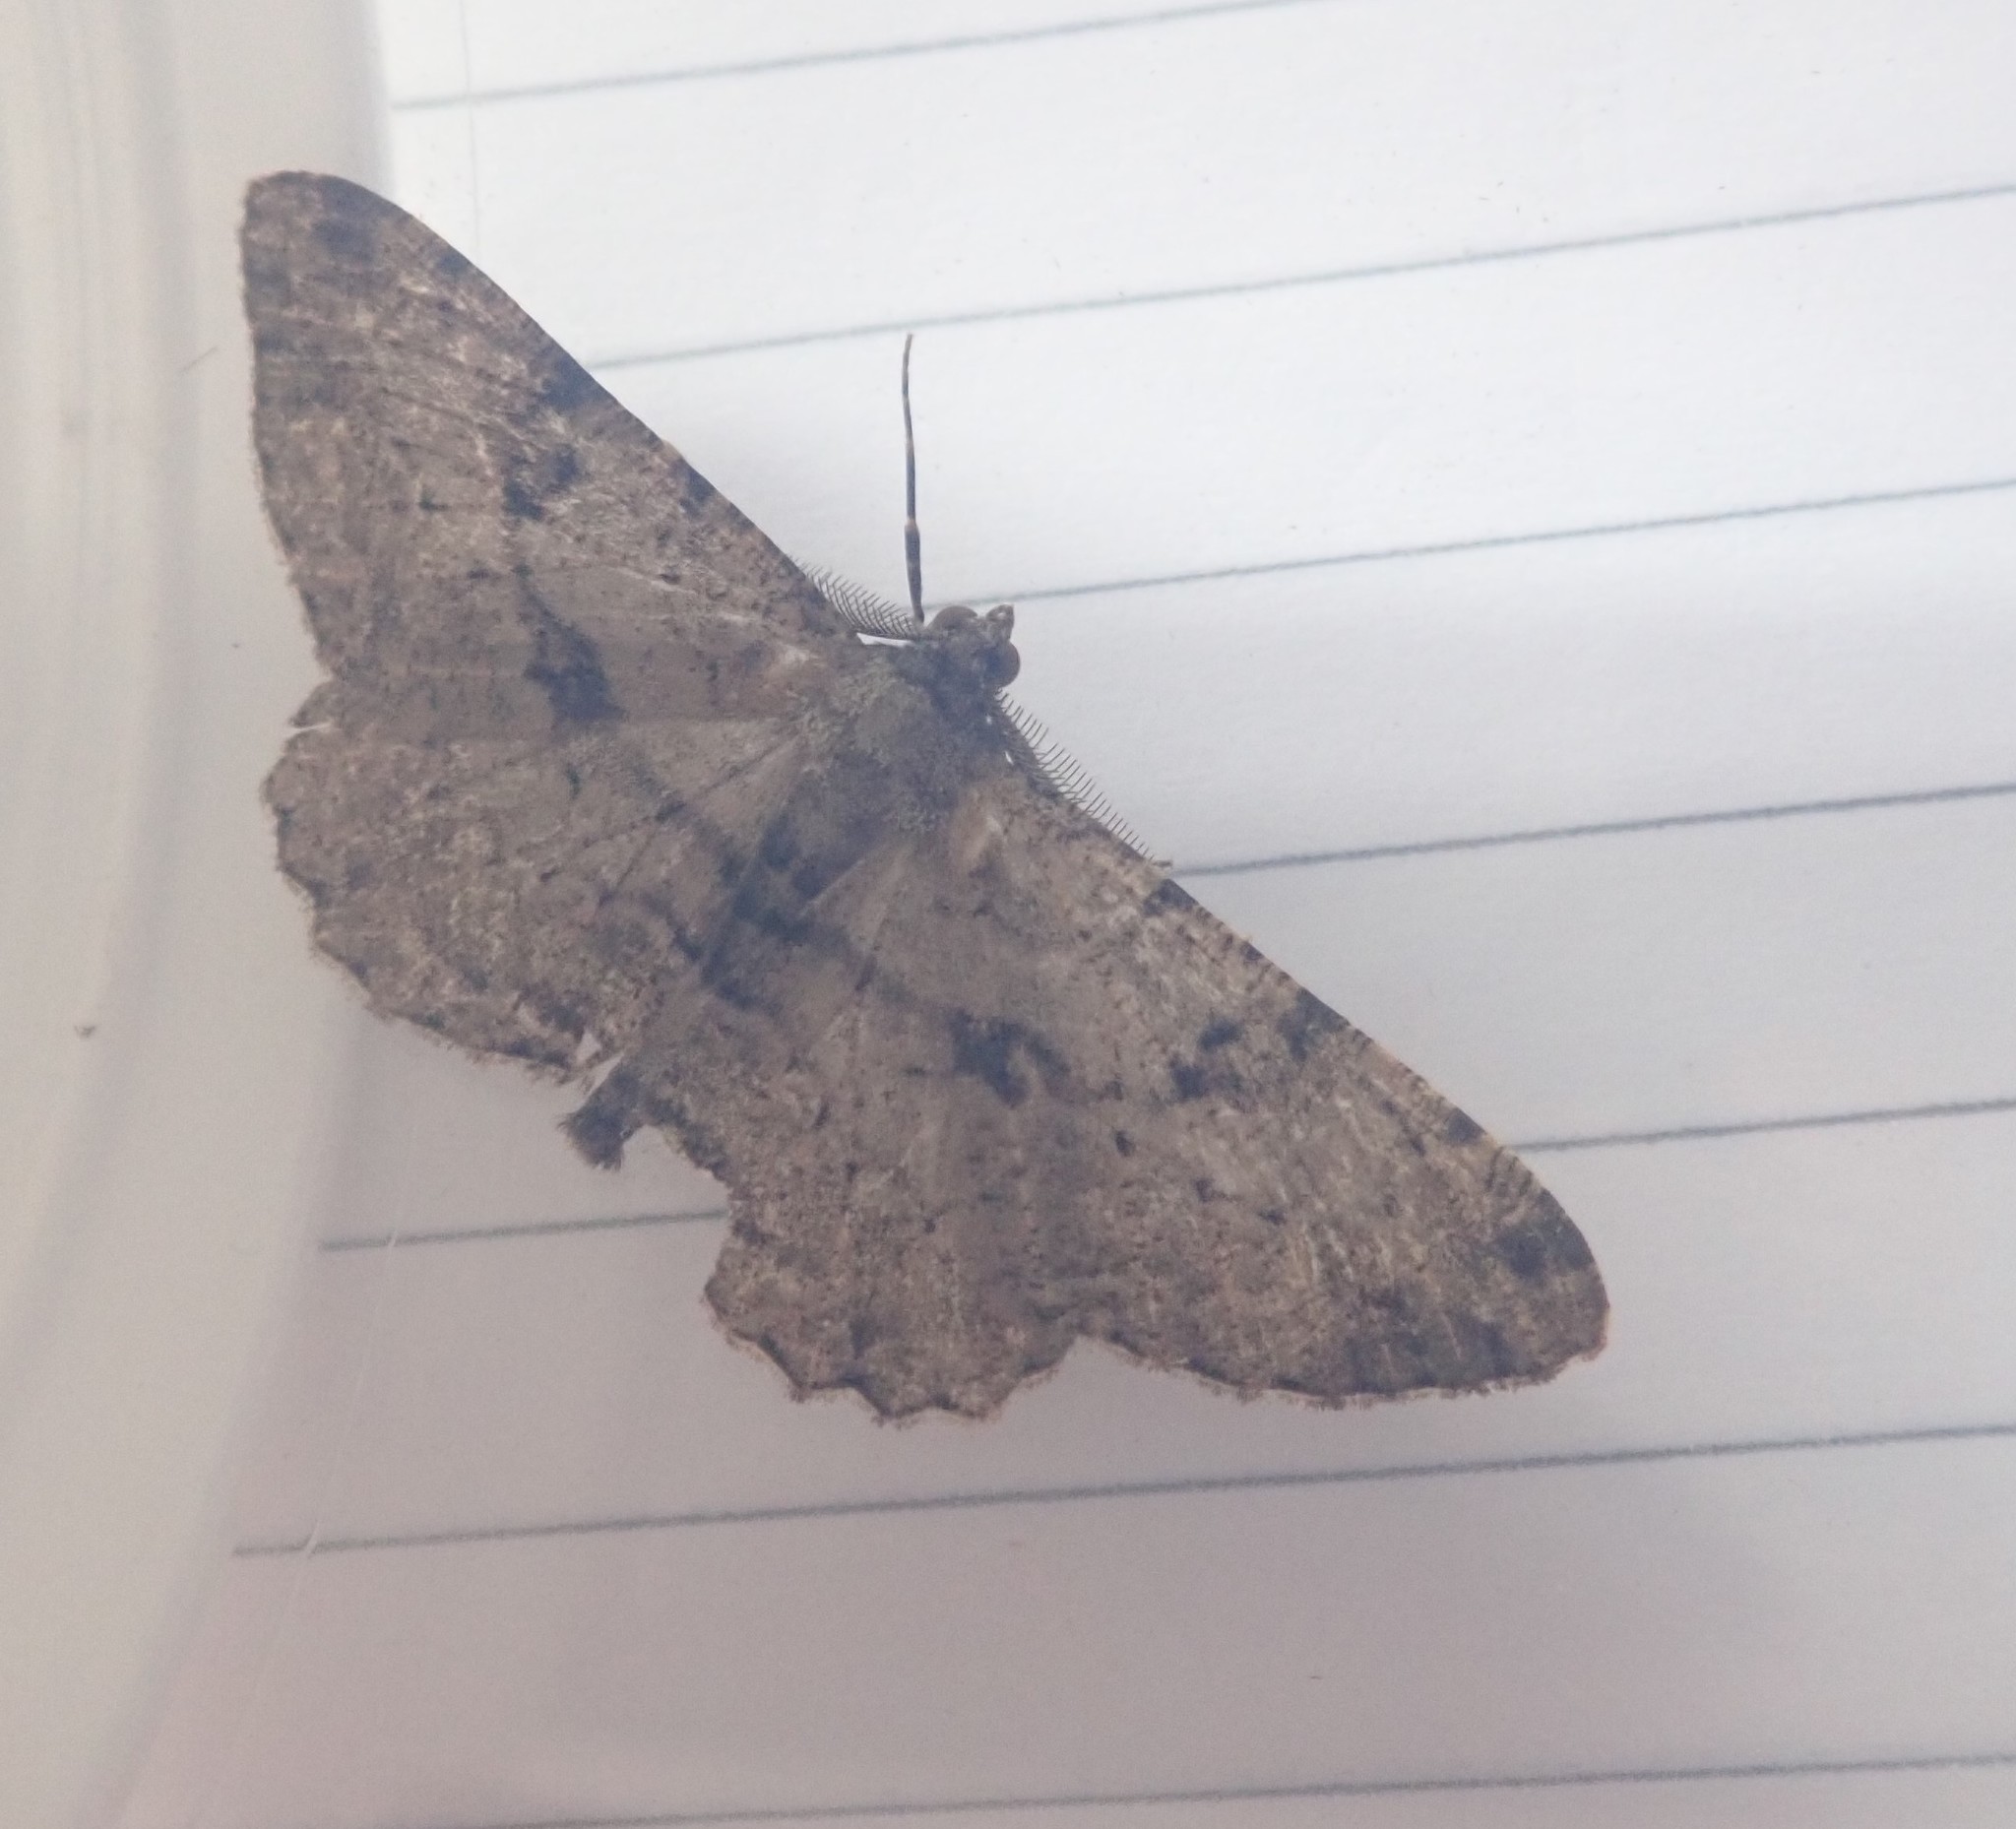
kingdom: Animalia
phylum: Arthropoda
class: Insecta
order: Lepidoptera
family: Geometridae
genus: Peribatodes
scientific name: Peribatodes rhomboidaria
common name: Willow beauty
